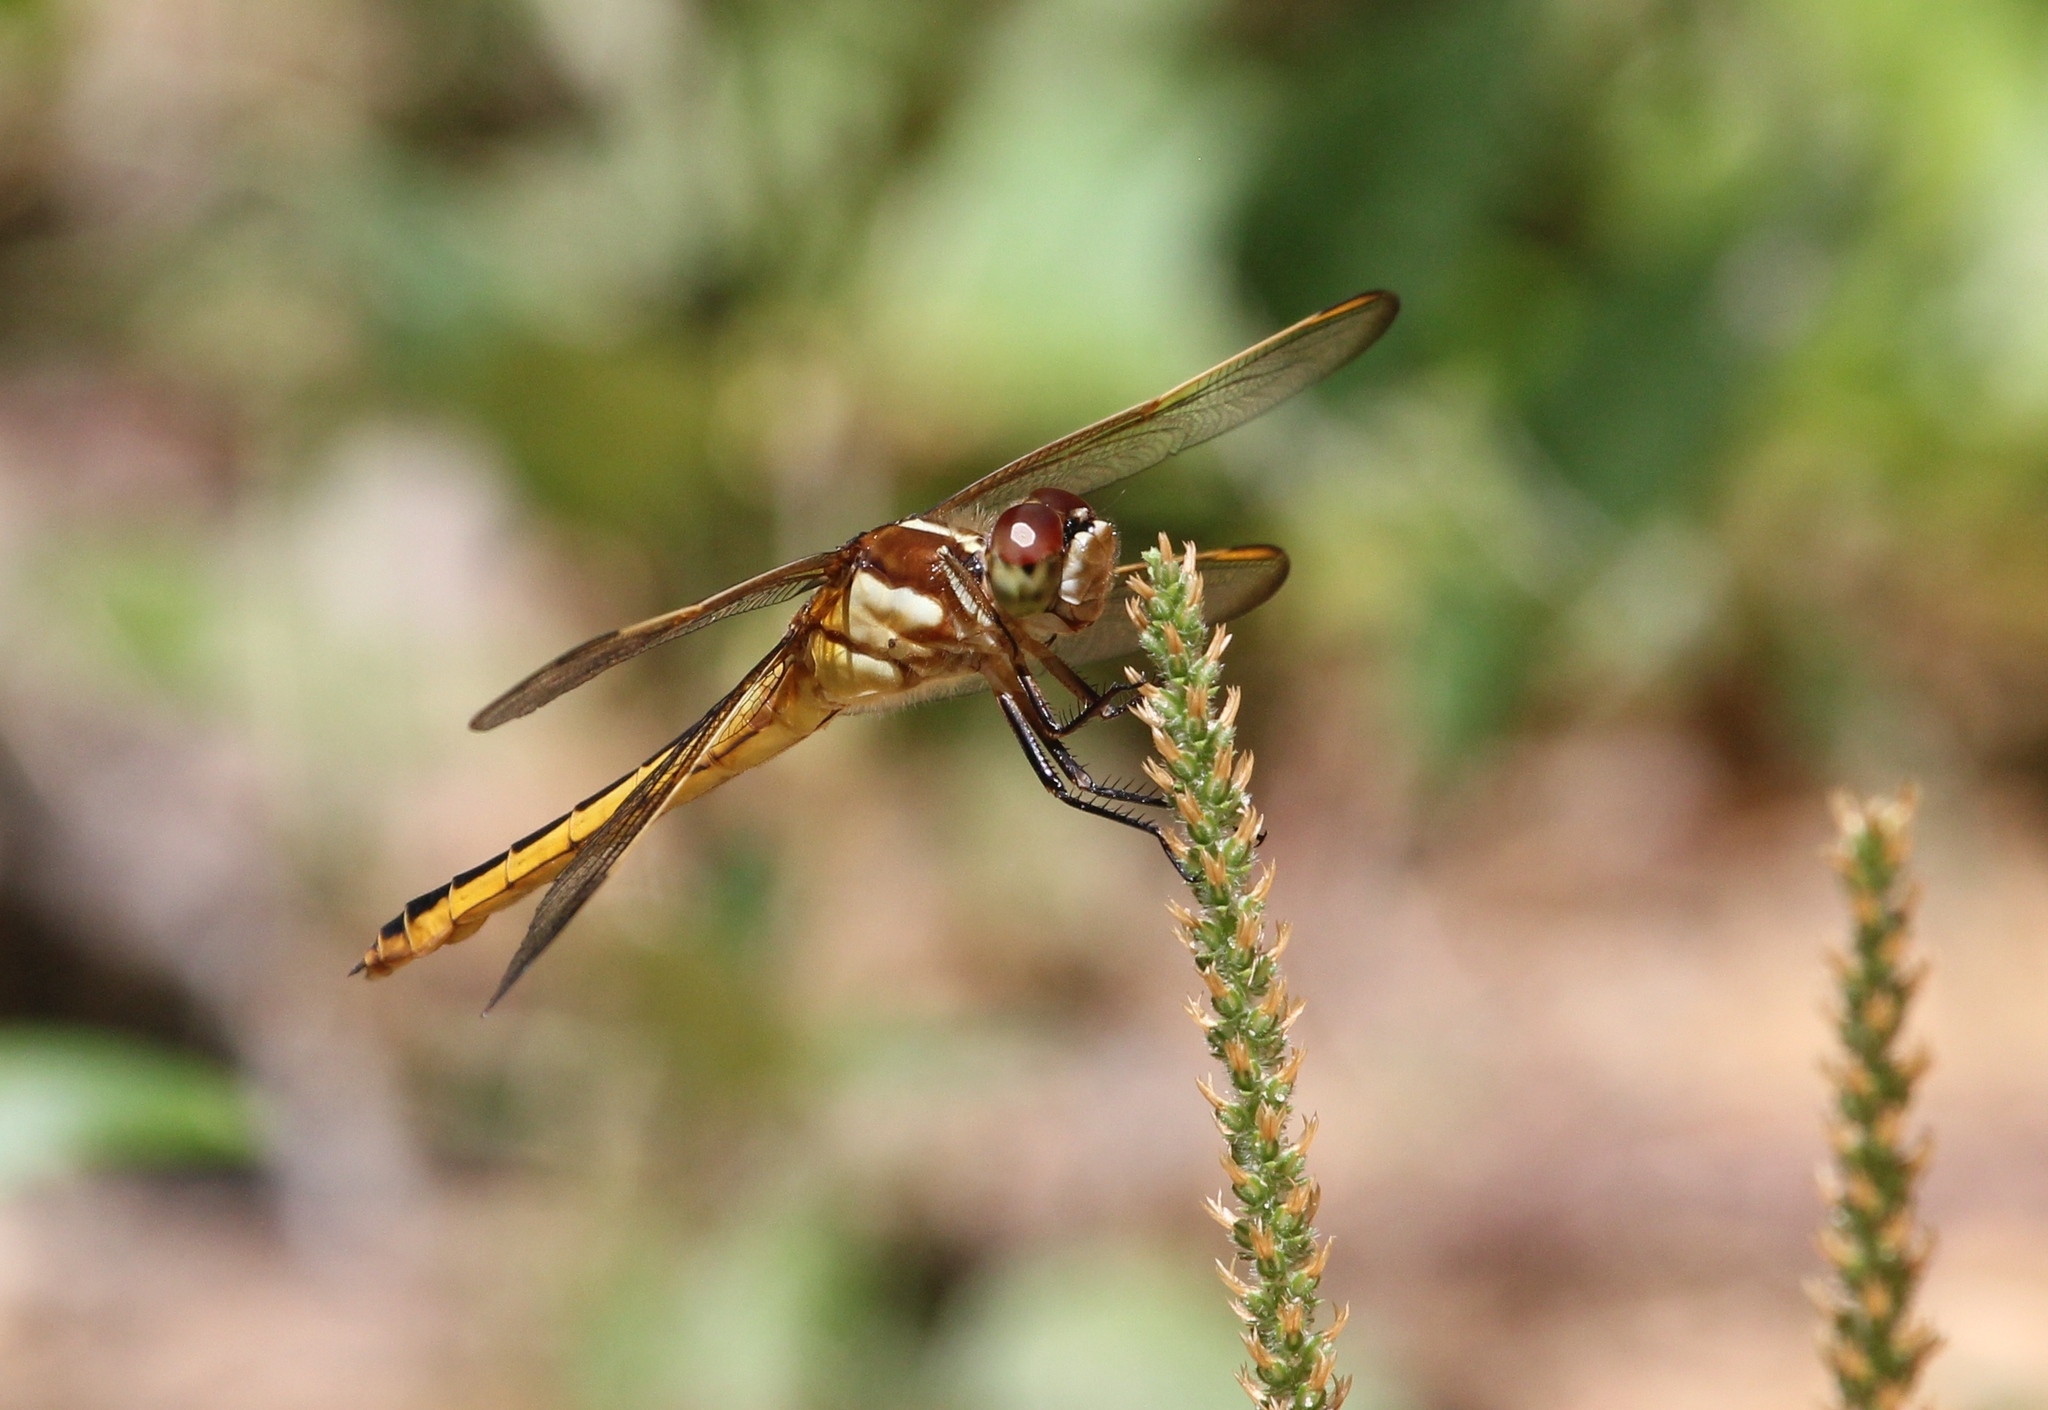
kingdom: Animalia
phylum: Arthropoda
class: Insecta
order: Odonata
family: Libellulidae
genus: Libellula
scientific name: Libellula auripennis
